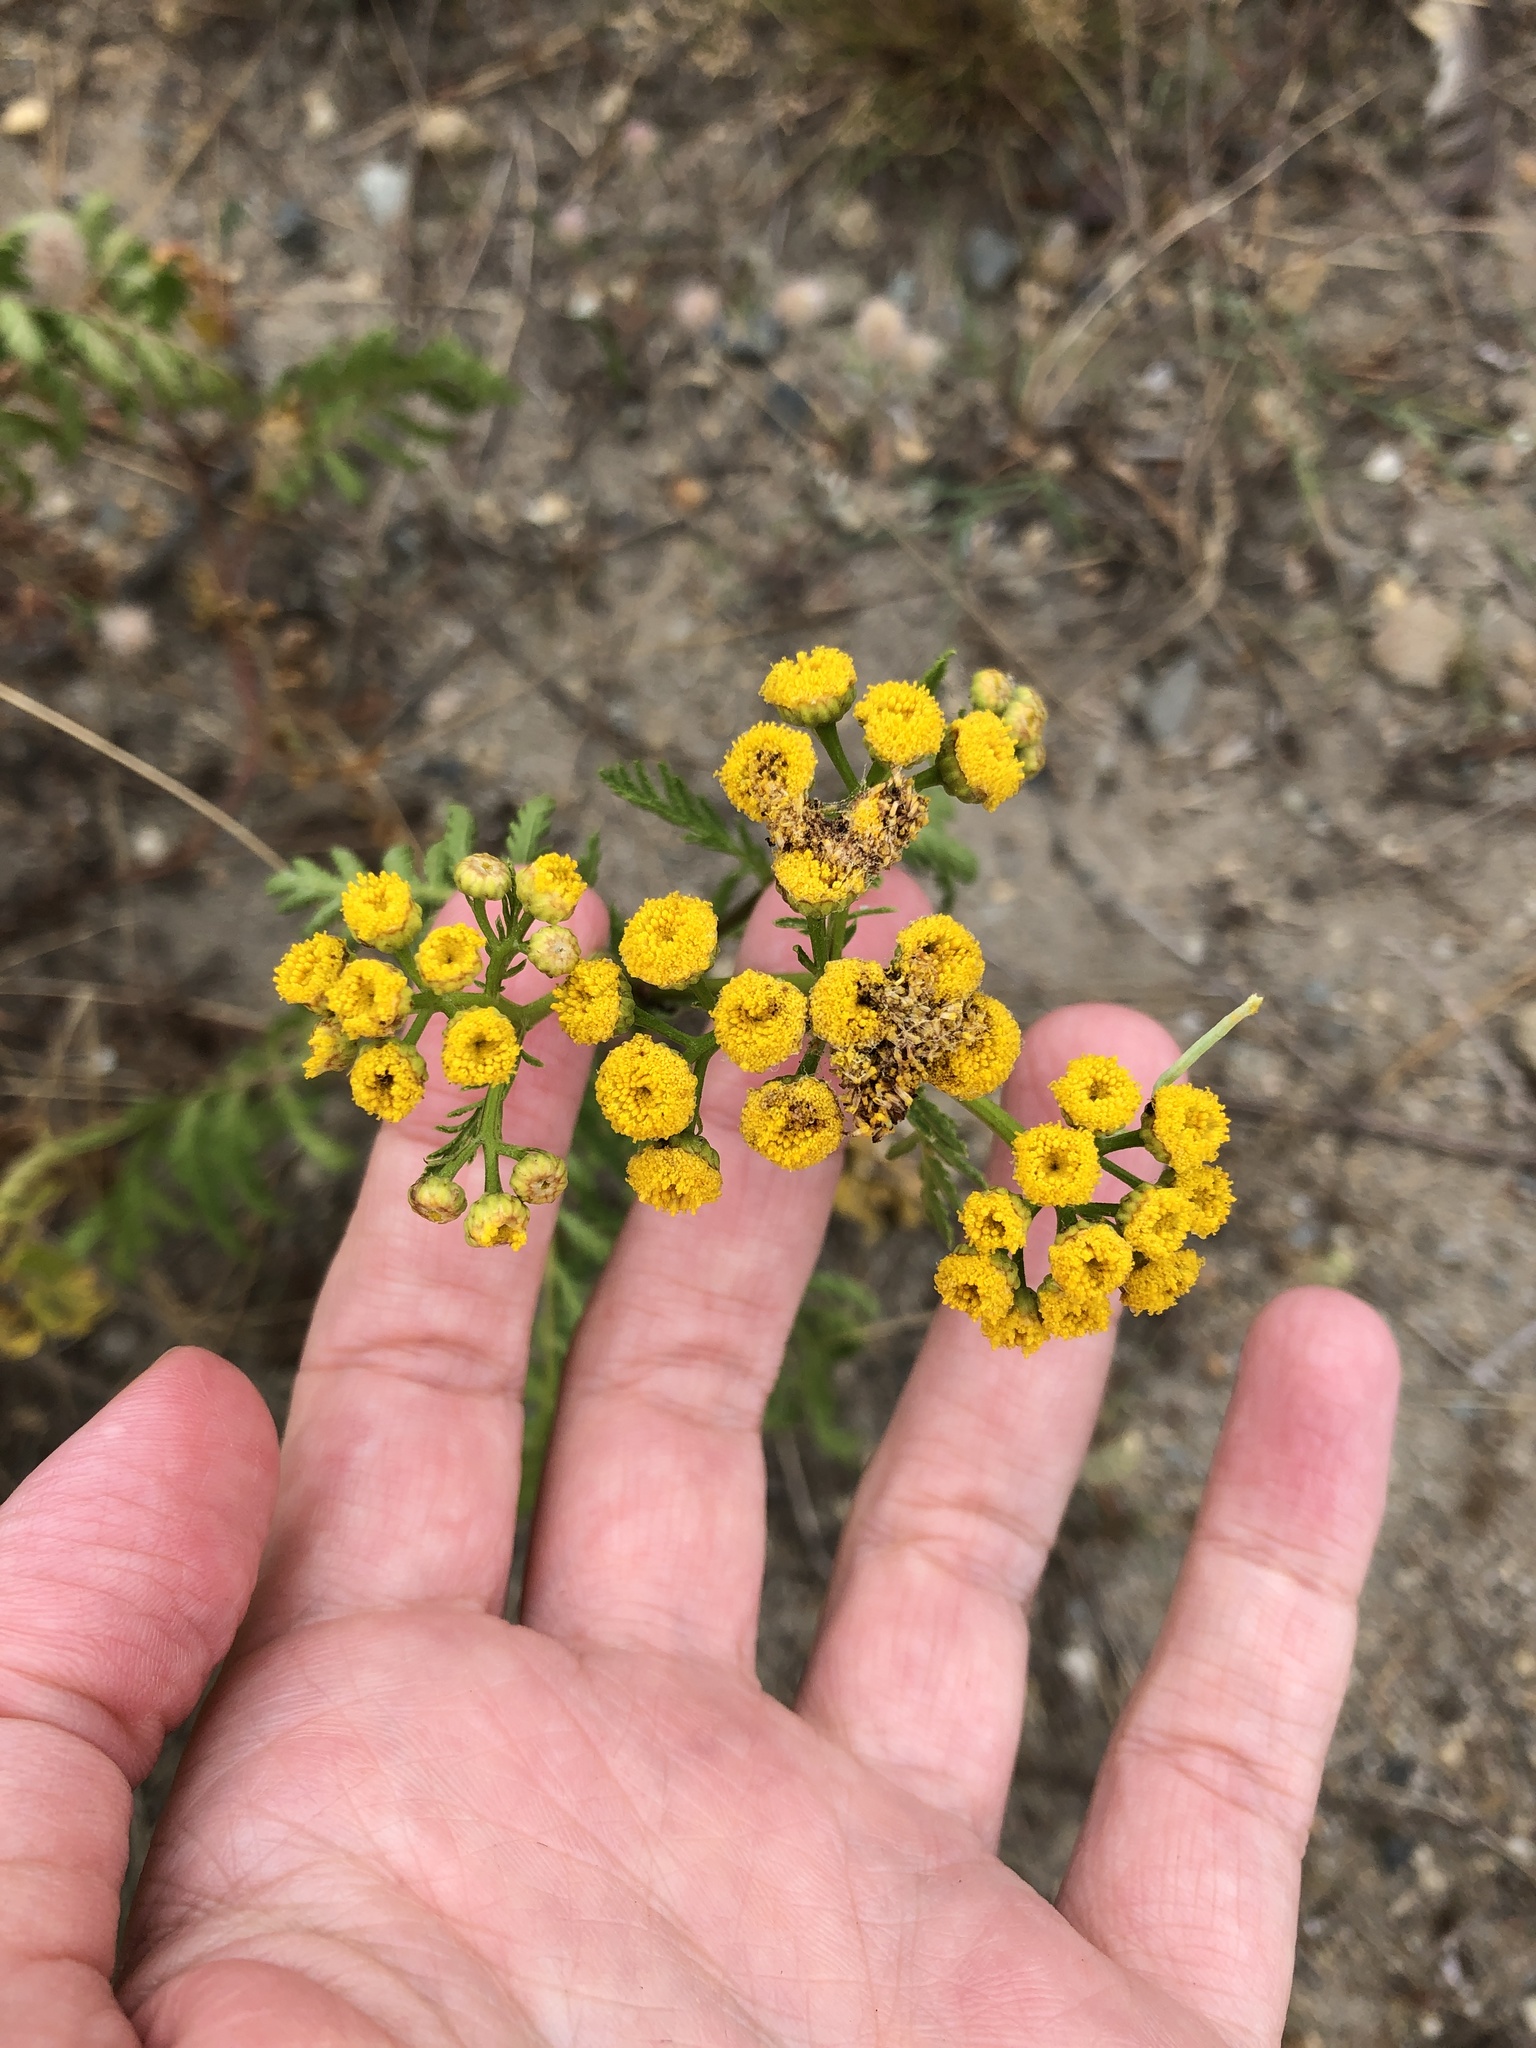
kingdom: Plantae
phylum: Tracheophyta
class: Magnoliopsida
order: Asterales
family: Asteraceae
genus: Tanacetum
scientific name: Tanacetum vulgare
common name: Common tansy
